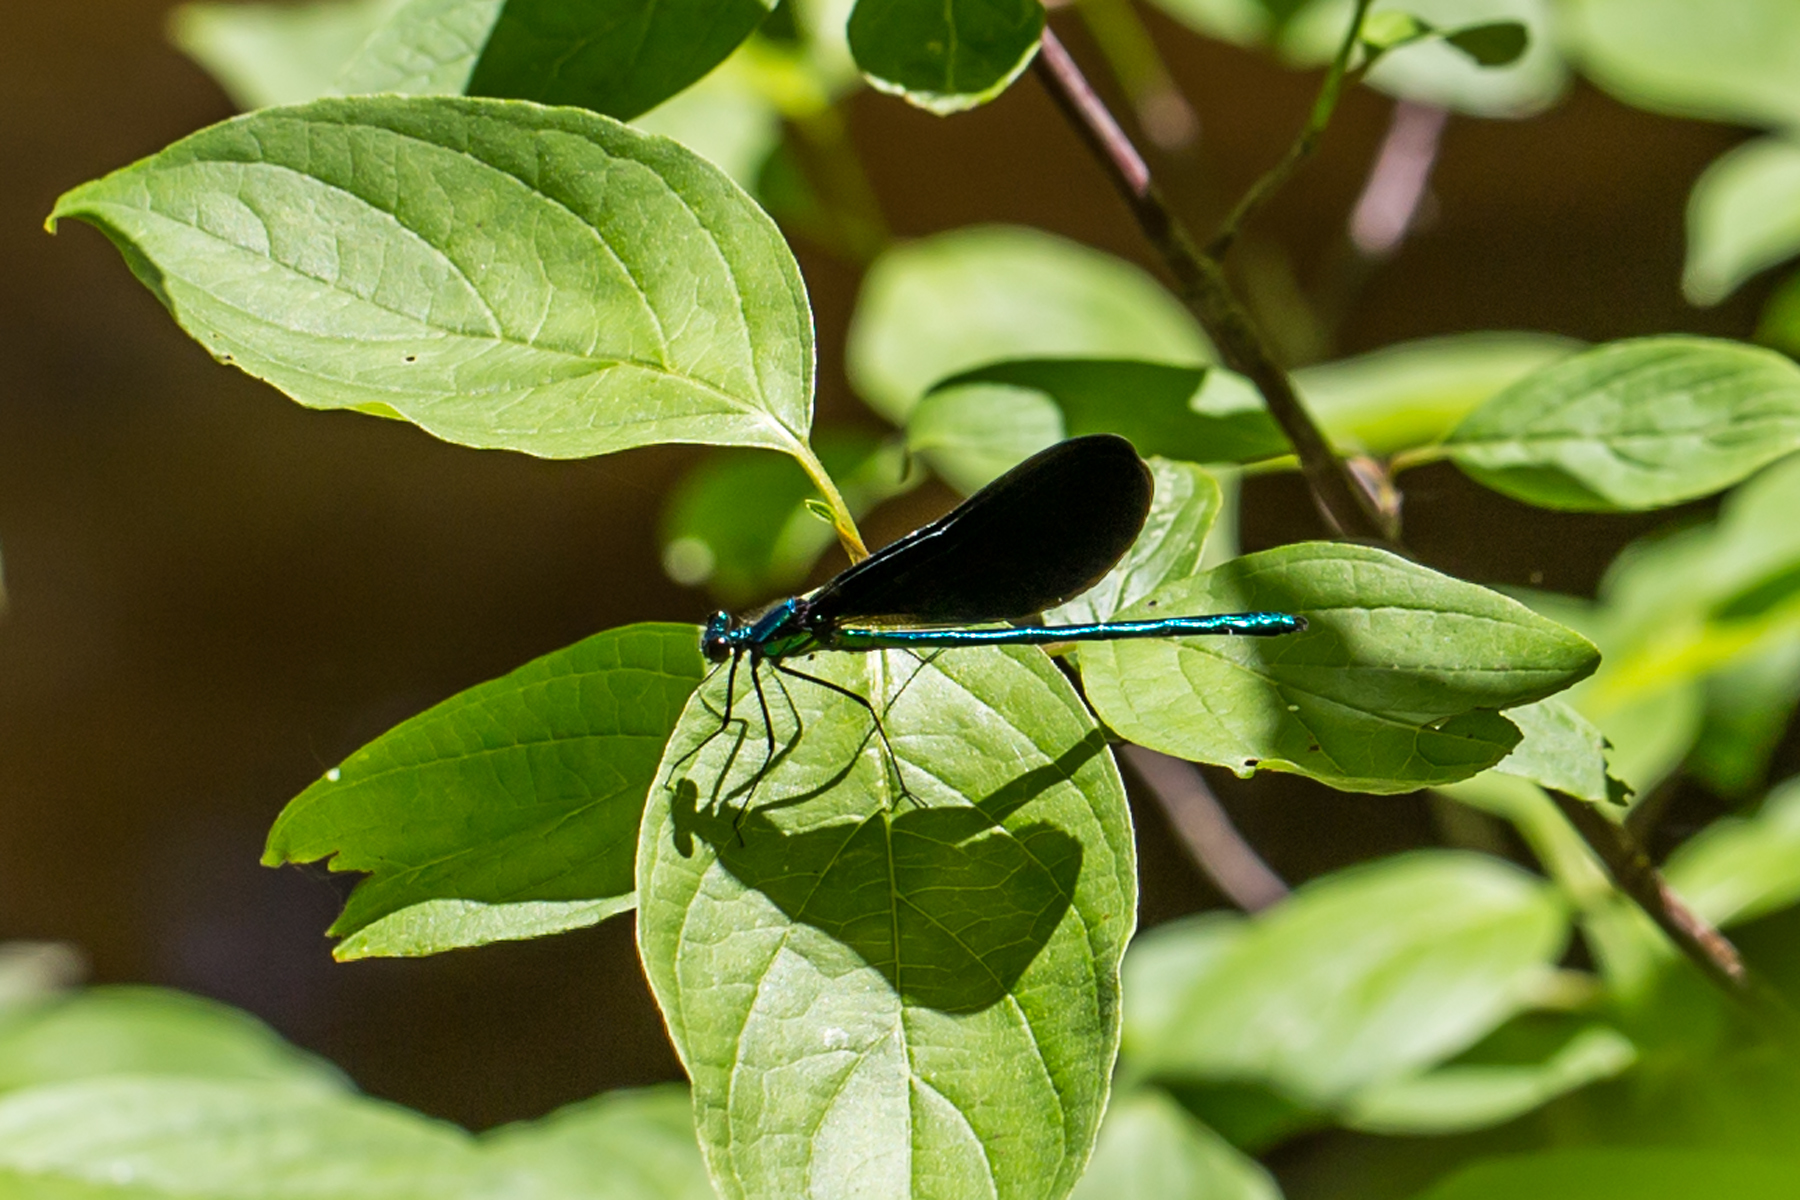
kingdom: Animalia
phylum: Arthropoda
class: Insecta
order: Odonata
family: Calopterygidae
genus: Calopteryx
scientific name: Calopteryx maculata
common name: Ebony jewelwing
